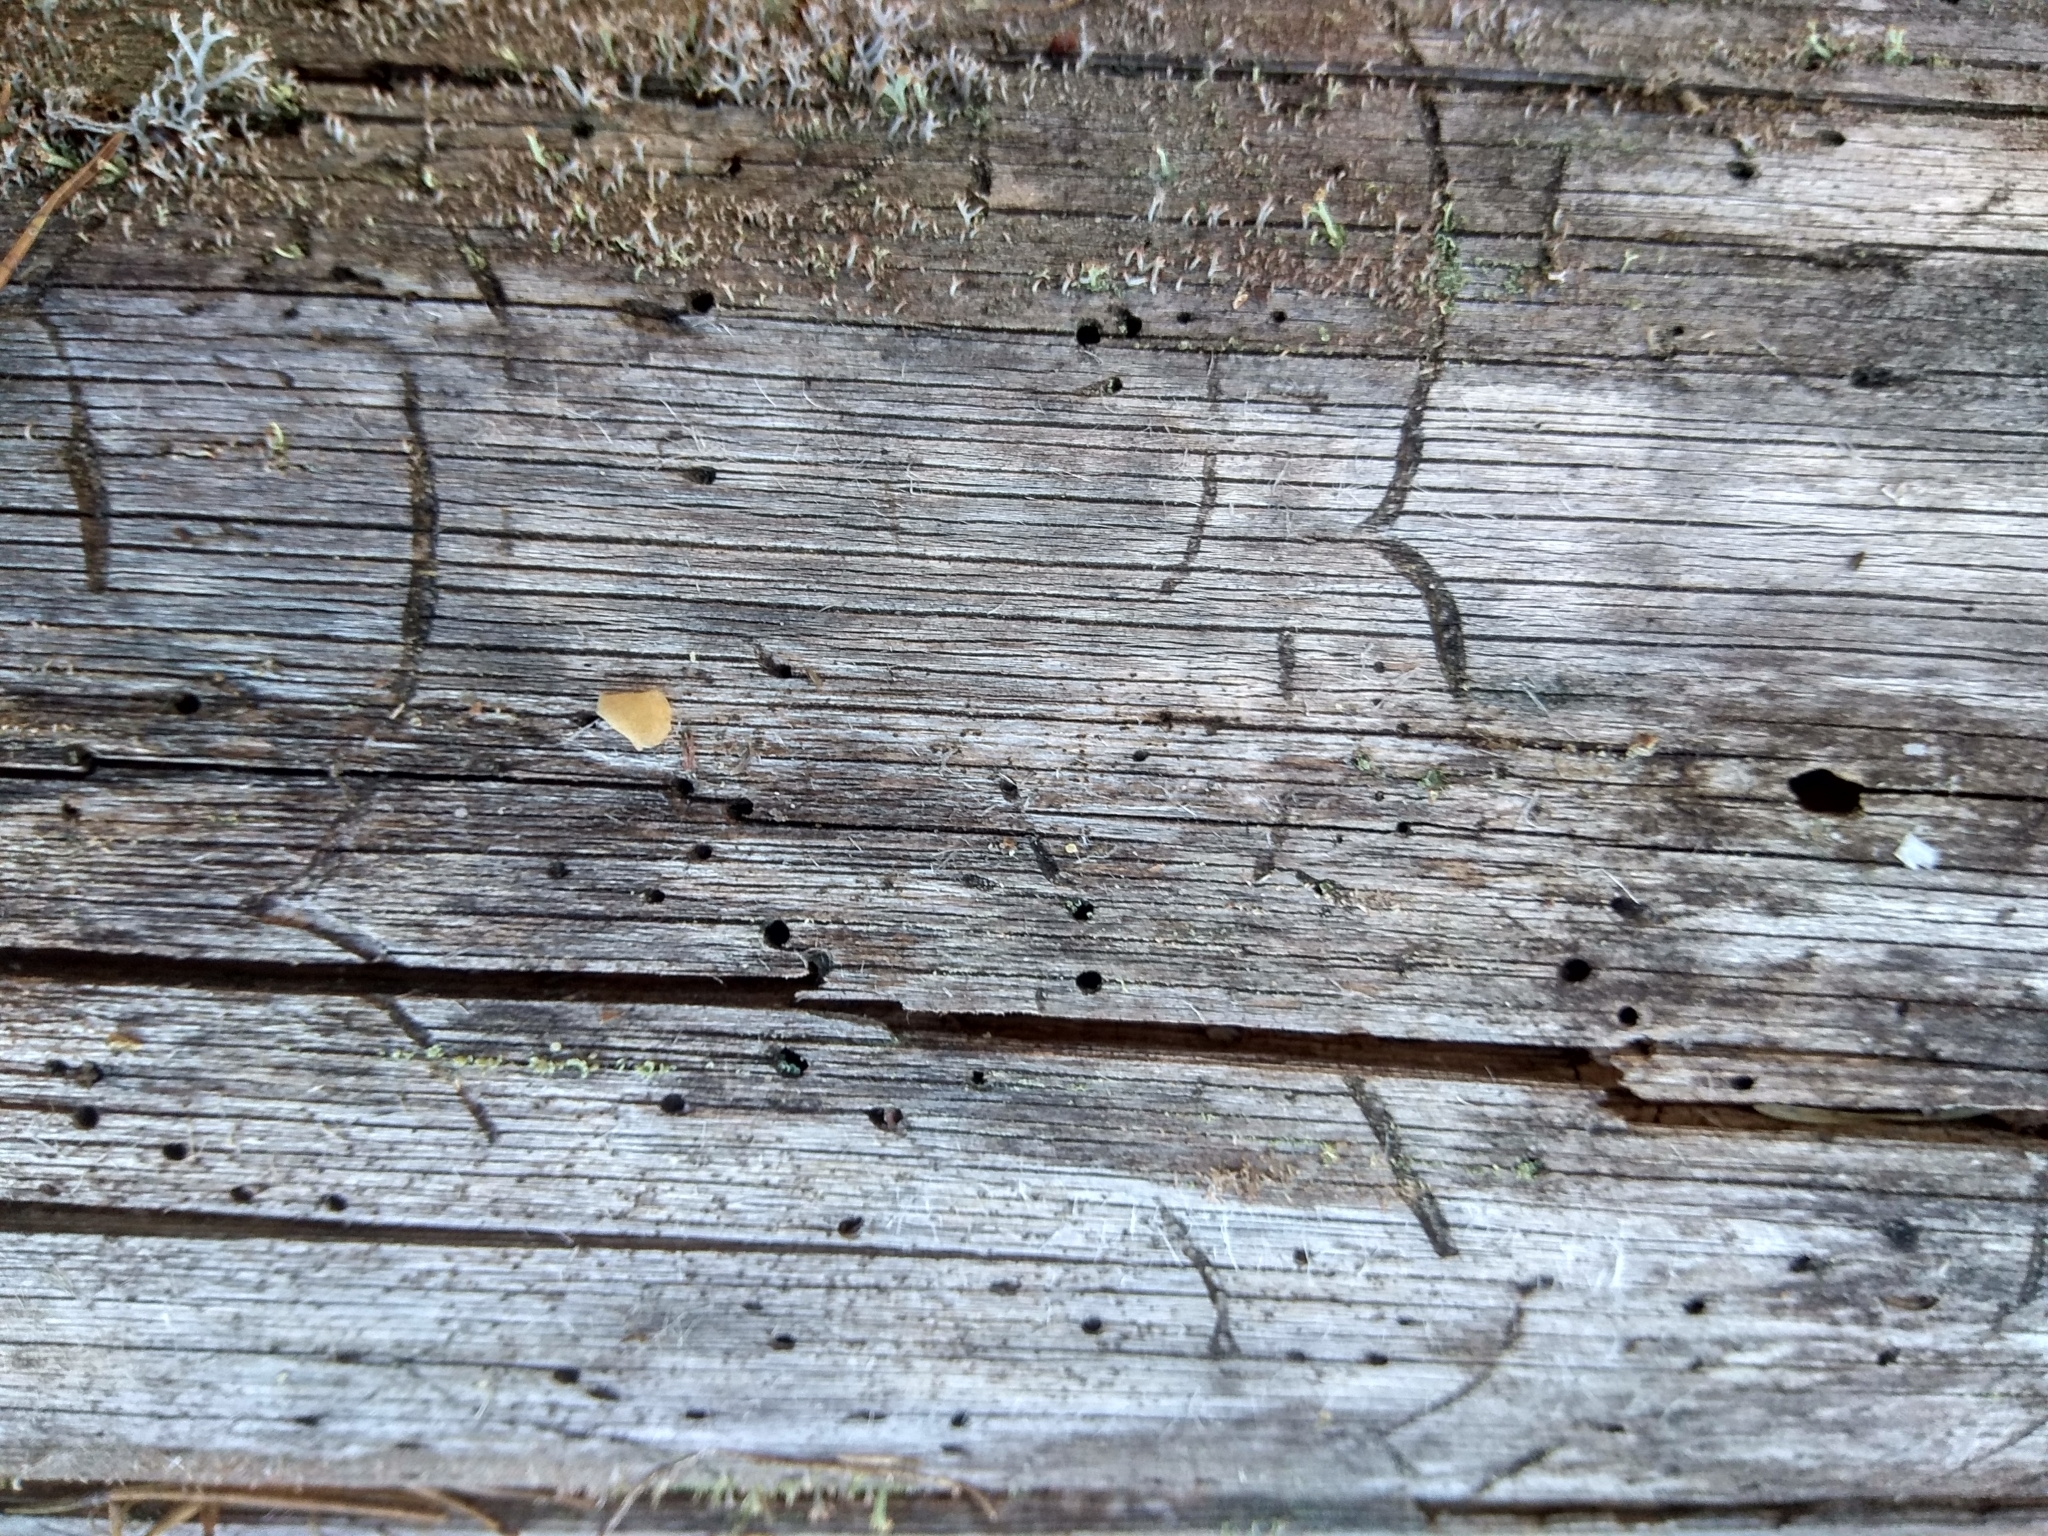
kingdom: Animalia
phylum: Arthropoda
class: Insecta
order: Coleoptera
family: Curculionidae
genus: Tomicus
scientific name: Tomicus minor
